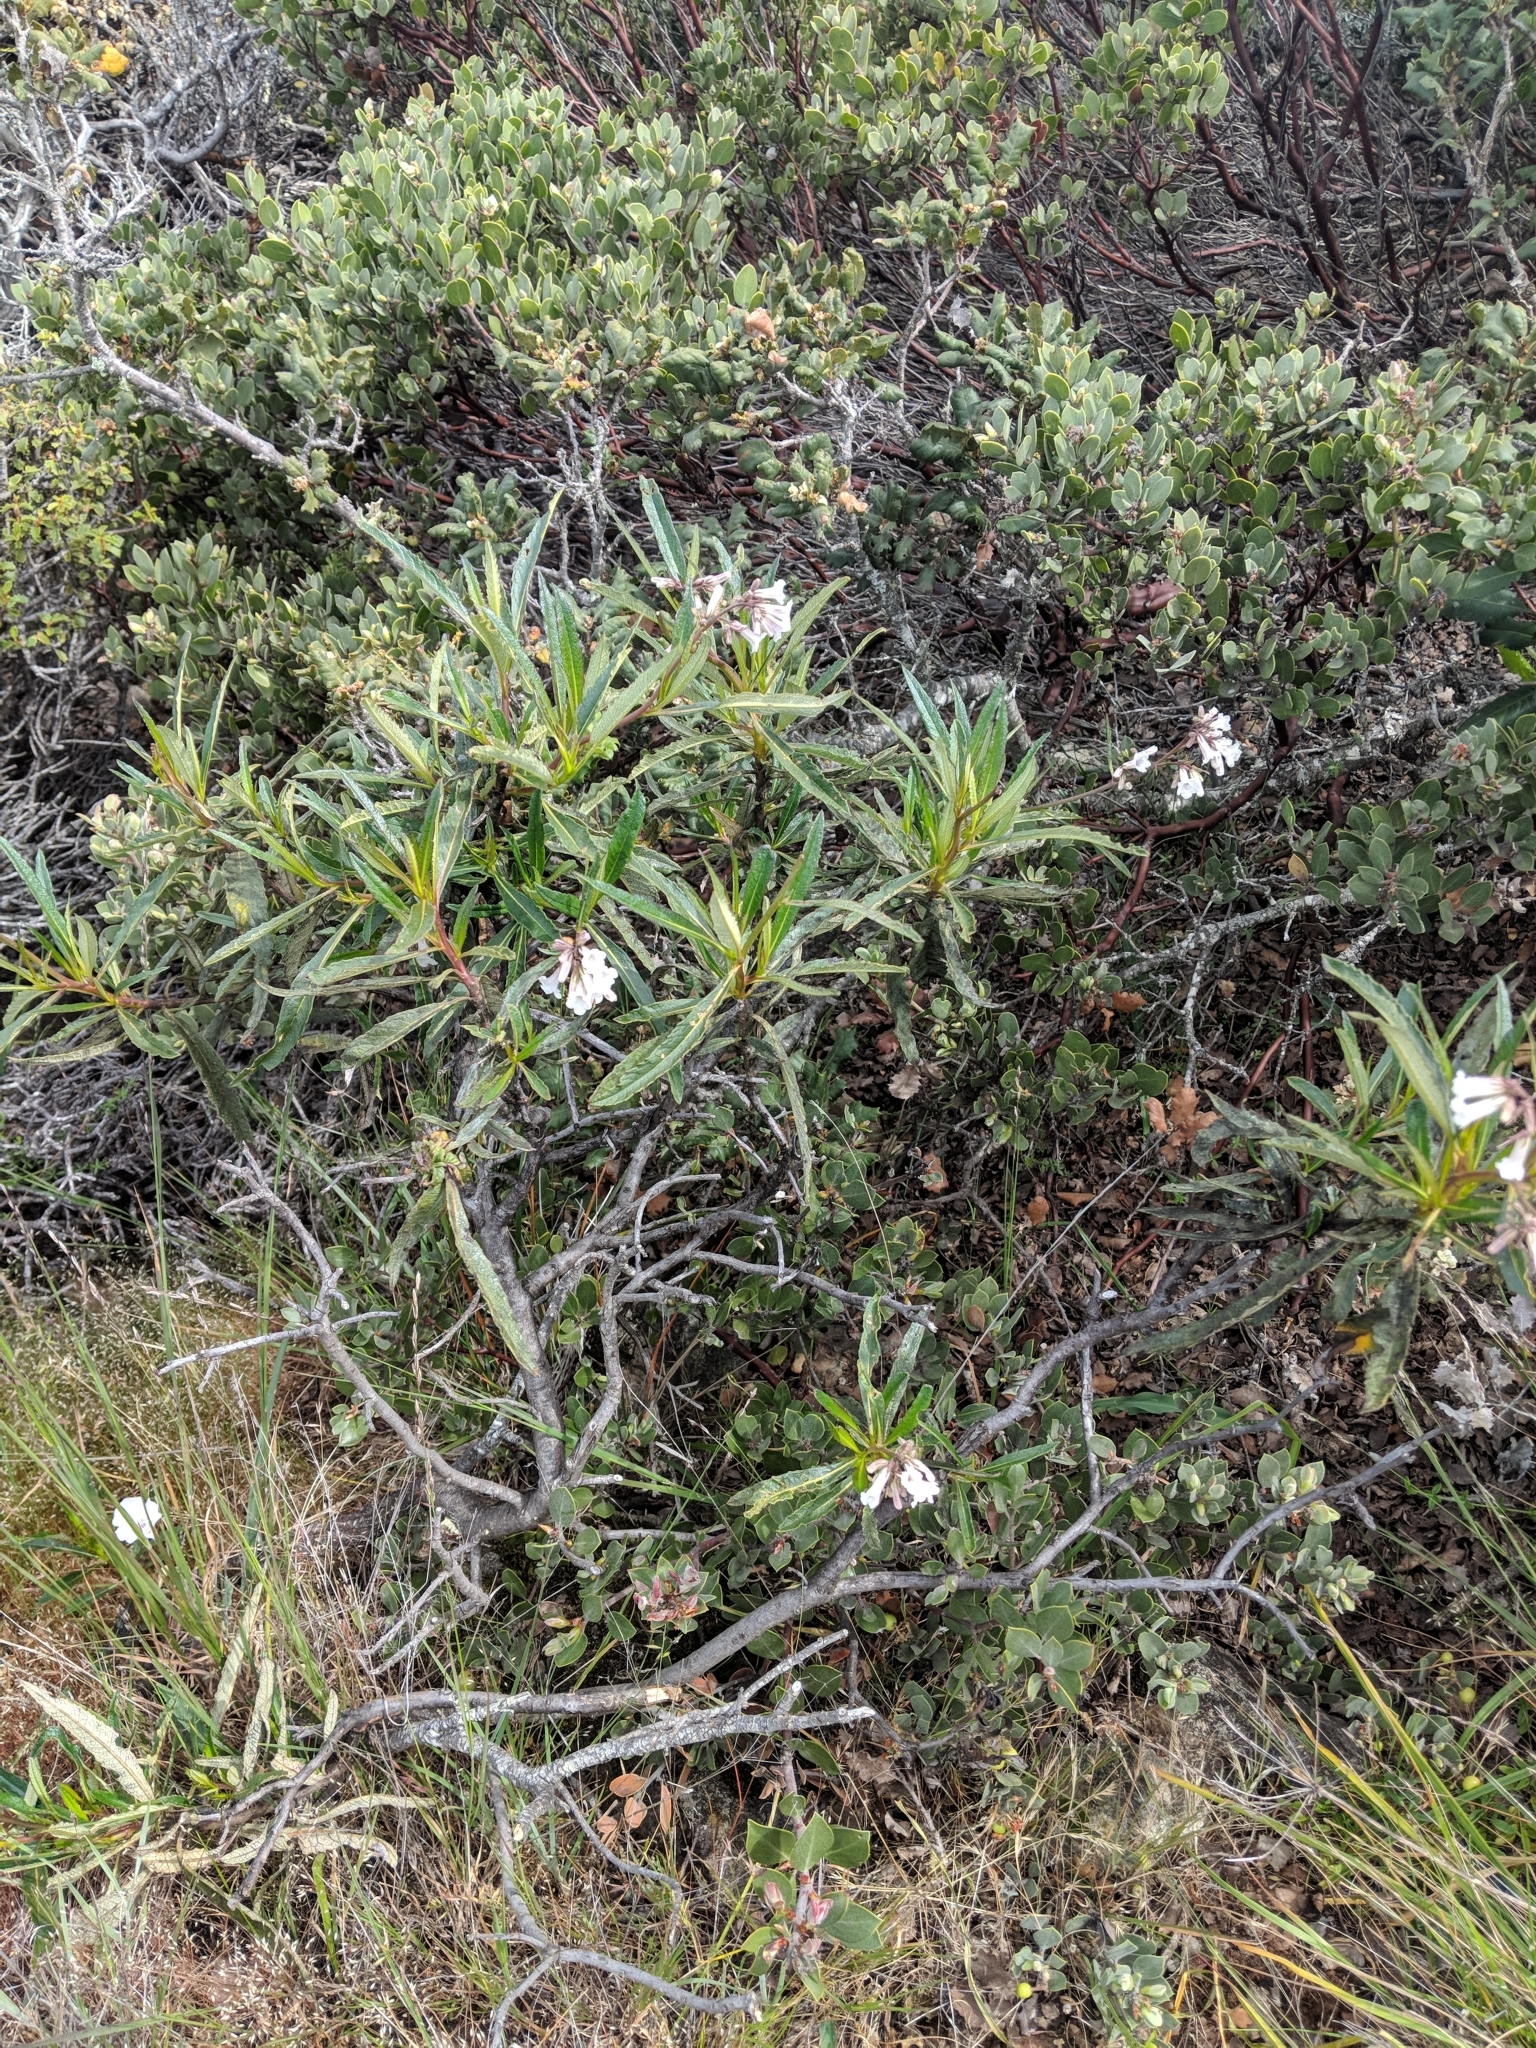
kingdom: Plantae
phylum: Tracheophyta
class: Magnoliopsida
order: Boraginales
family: Namaceae
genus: Eriodictyon
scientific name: Eriodictyon californicum
